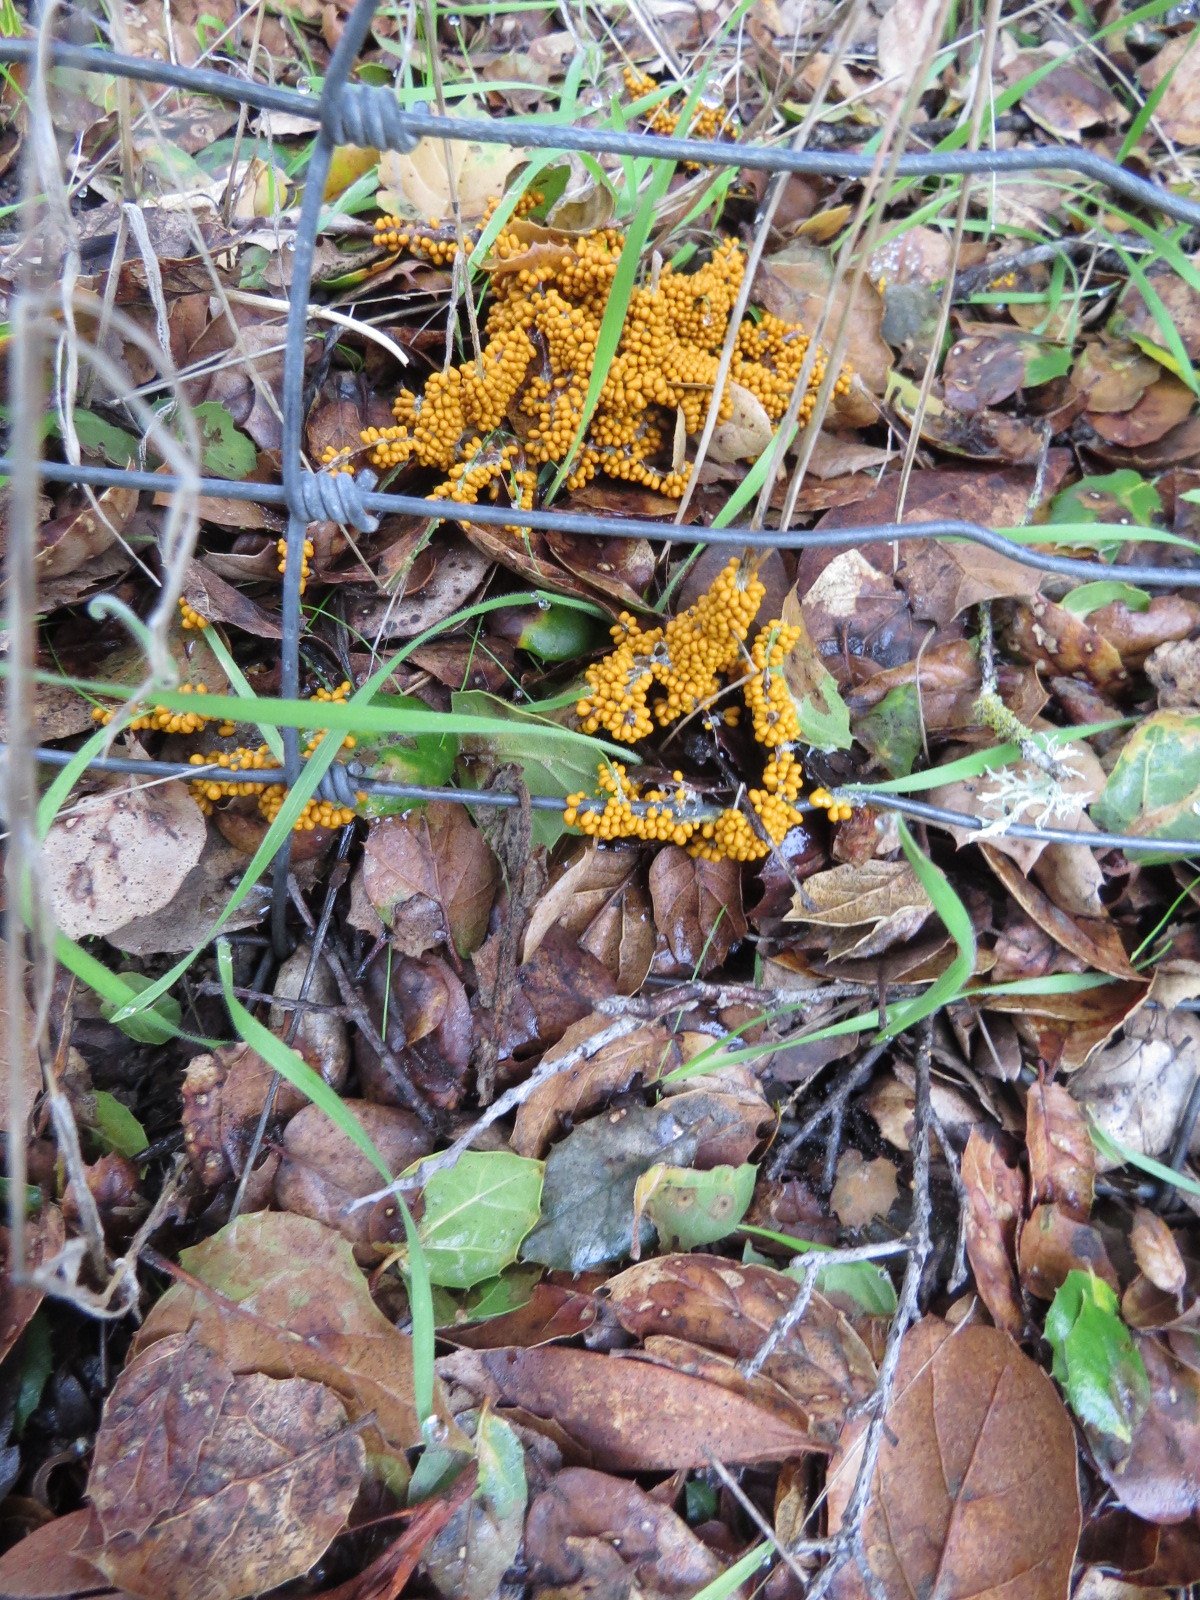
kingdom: Protozoa
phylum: Mycetozoa
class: Myxomycetes
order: Physarales
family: Physaraceae
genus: Leocarpus
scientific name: Leocarpus fragilis
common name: Insect-egg slime
